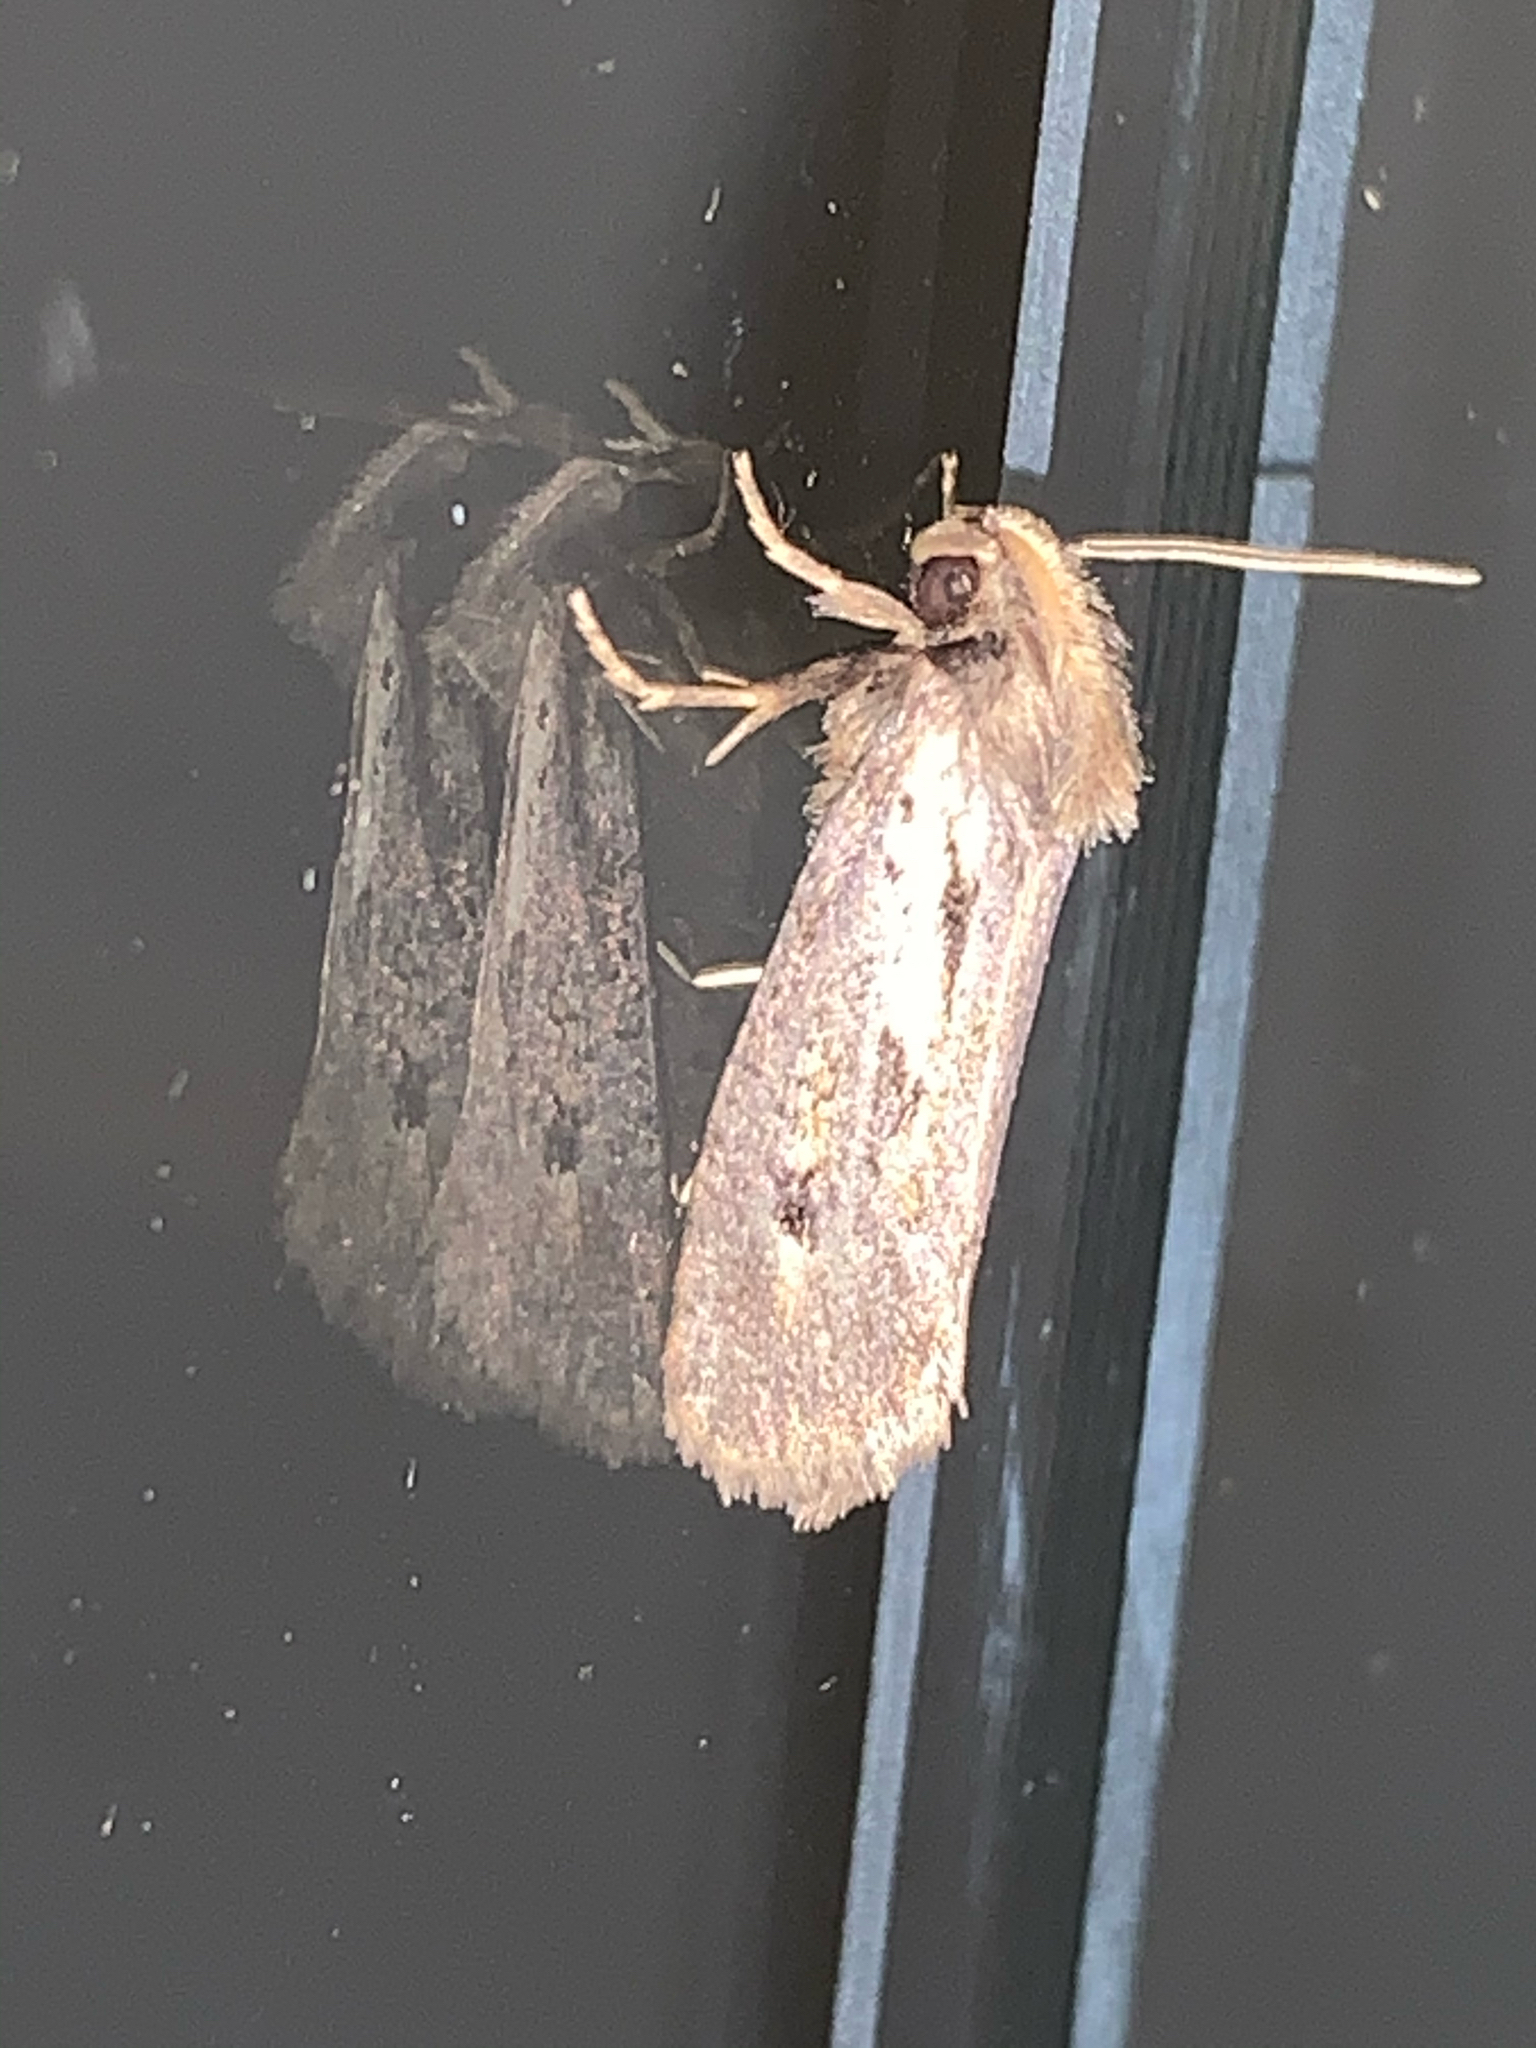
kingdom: Animalia
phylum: Arthropoda
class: Insecta
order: Lepidoptera
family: Tineidae
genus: Acrolophus
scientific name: Acrolophus popeanella
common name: Clemens' grass tubeworm moth
